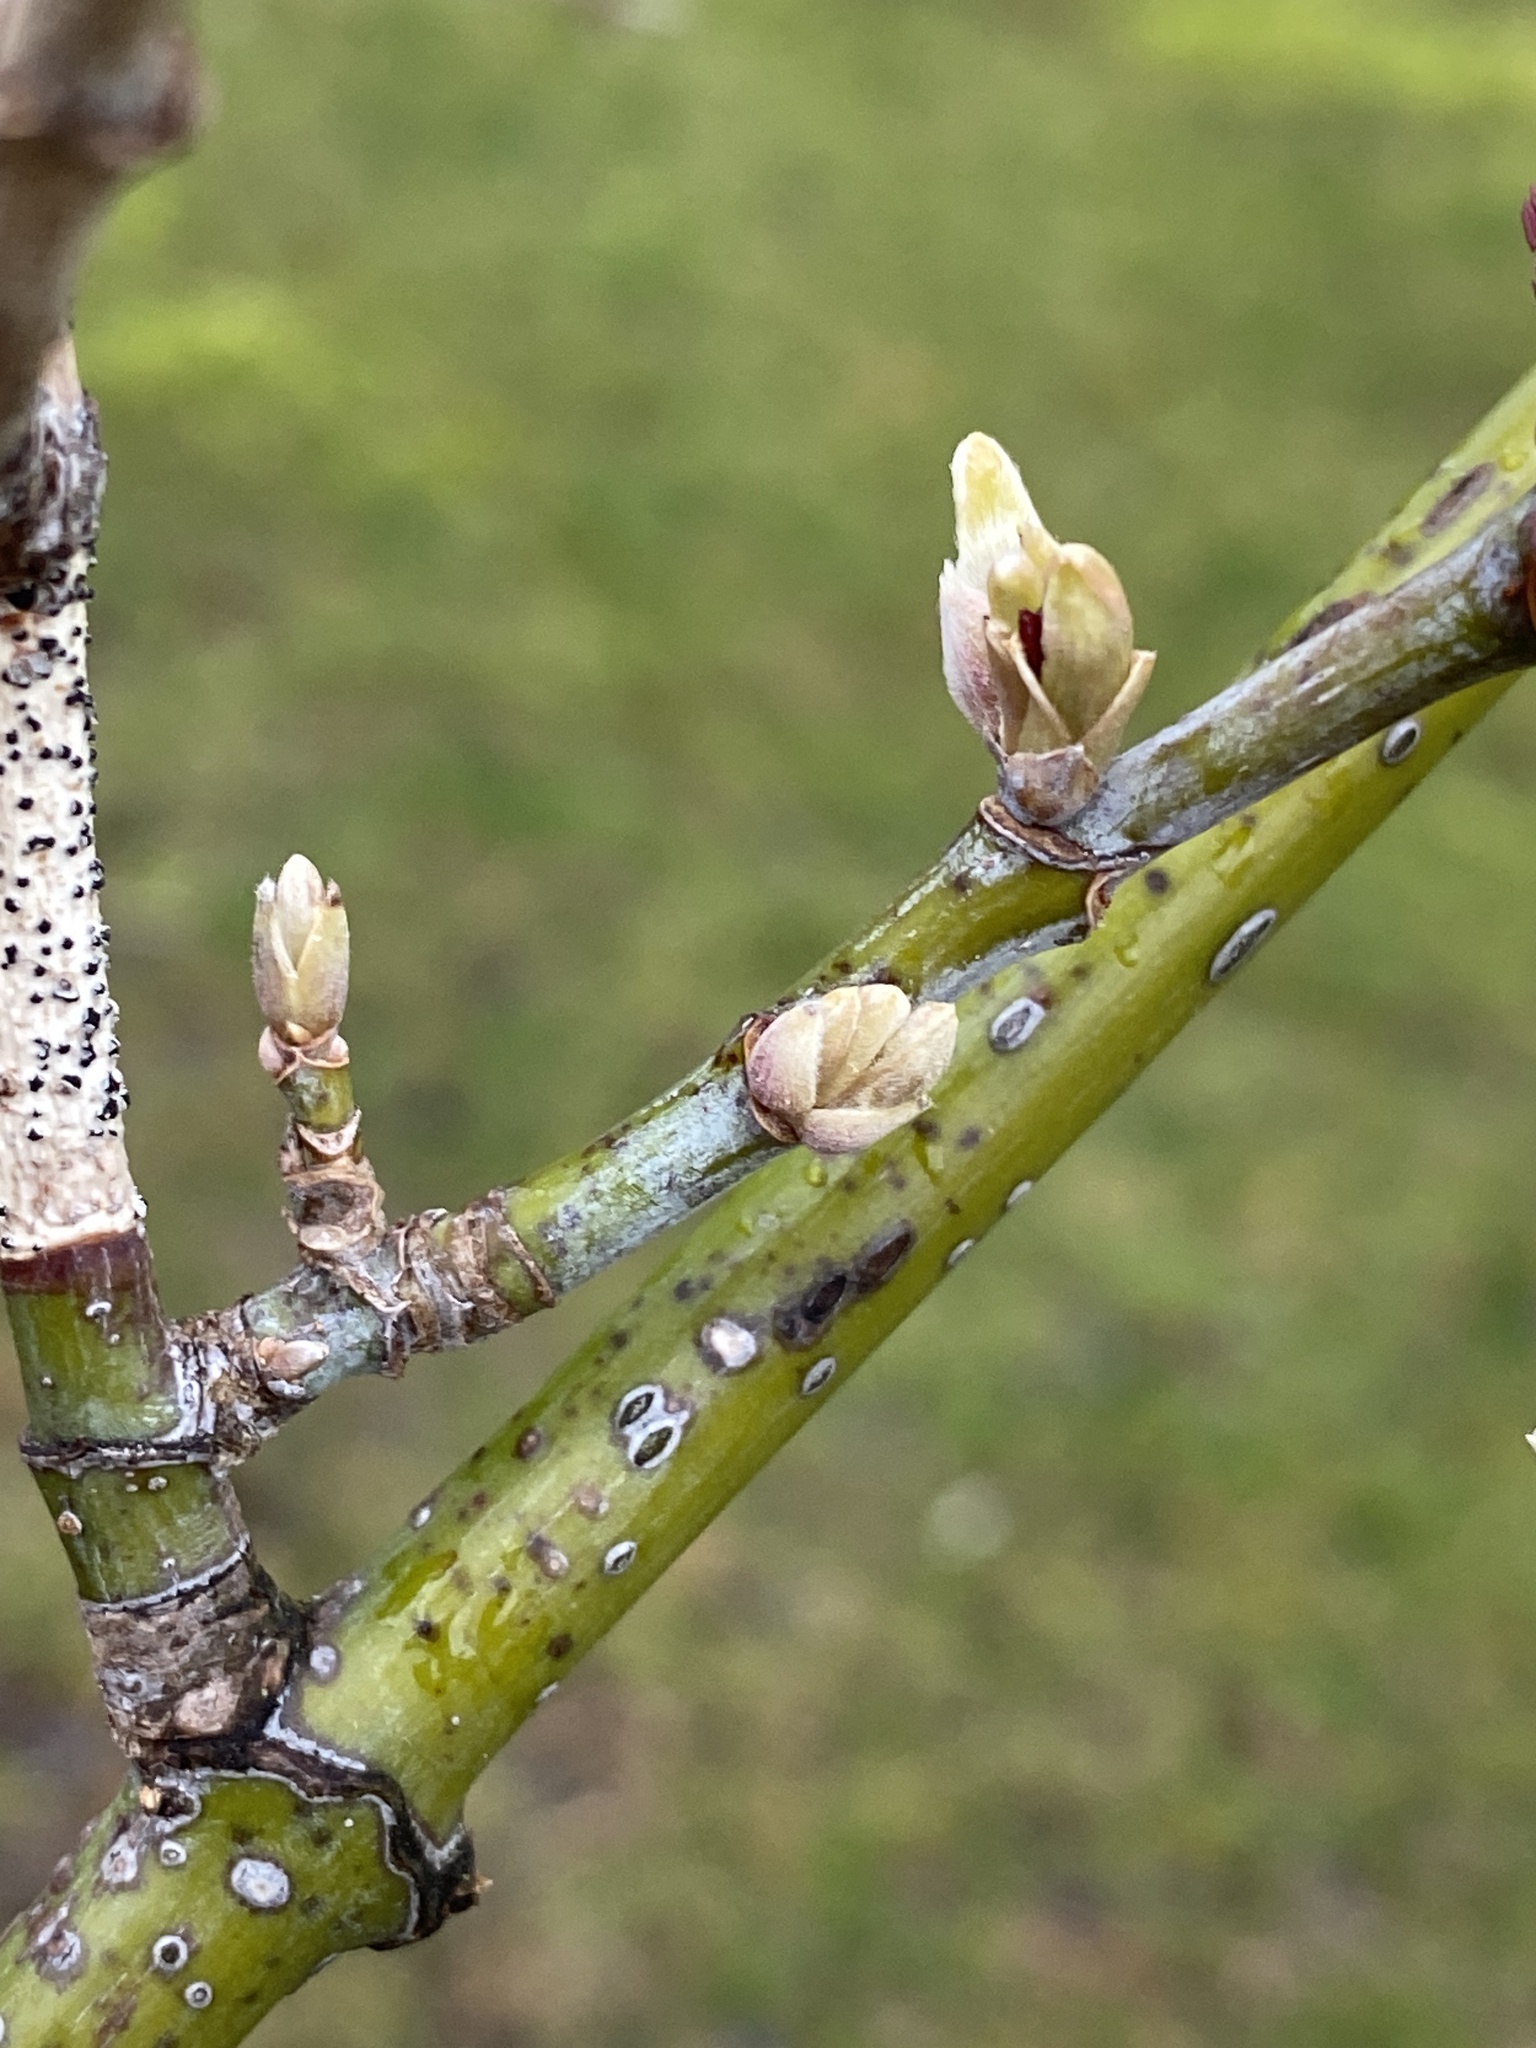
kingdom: Plantae
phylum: Tracheophyta
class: Magnoliopsida
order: Sapindales
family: Sapindaceae
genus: Acer
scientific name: Acer negundo
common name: Ashleaf maple
